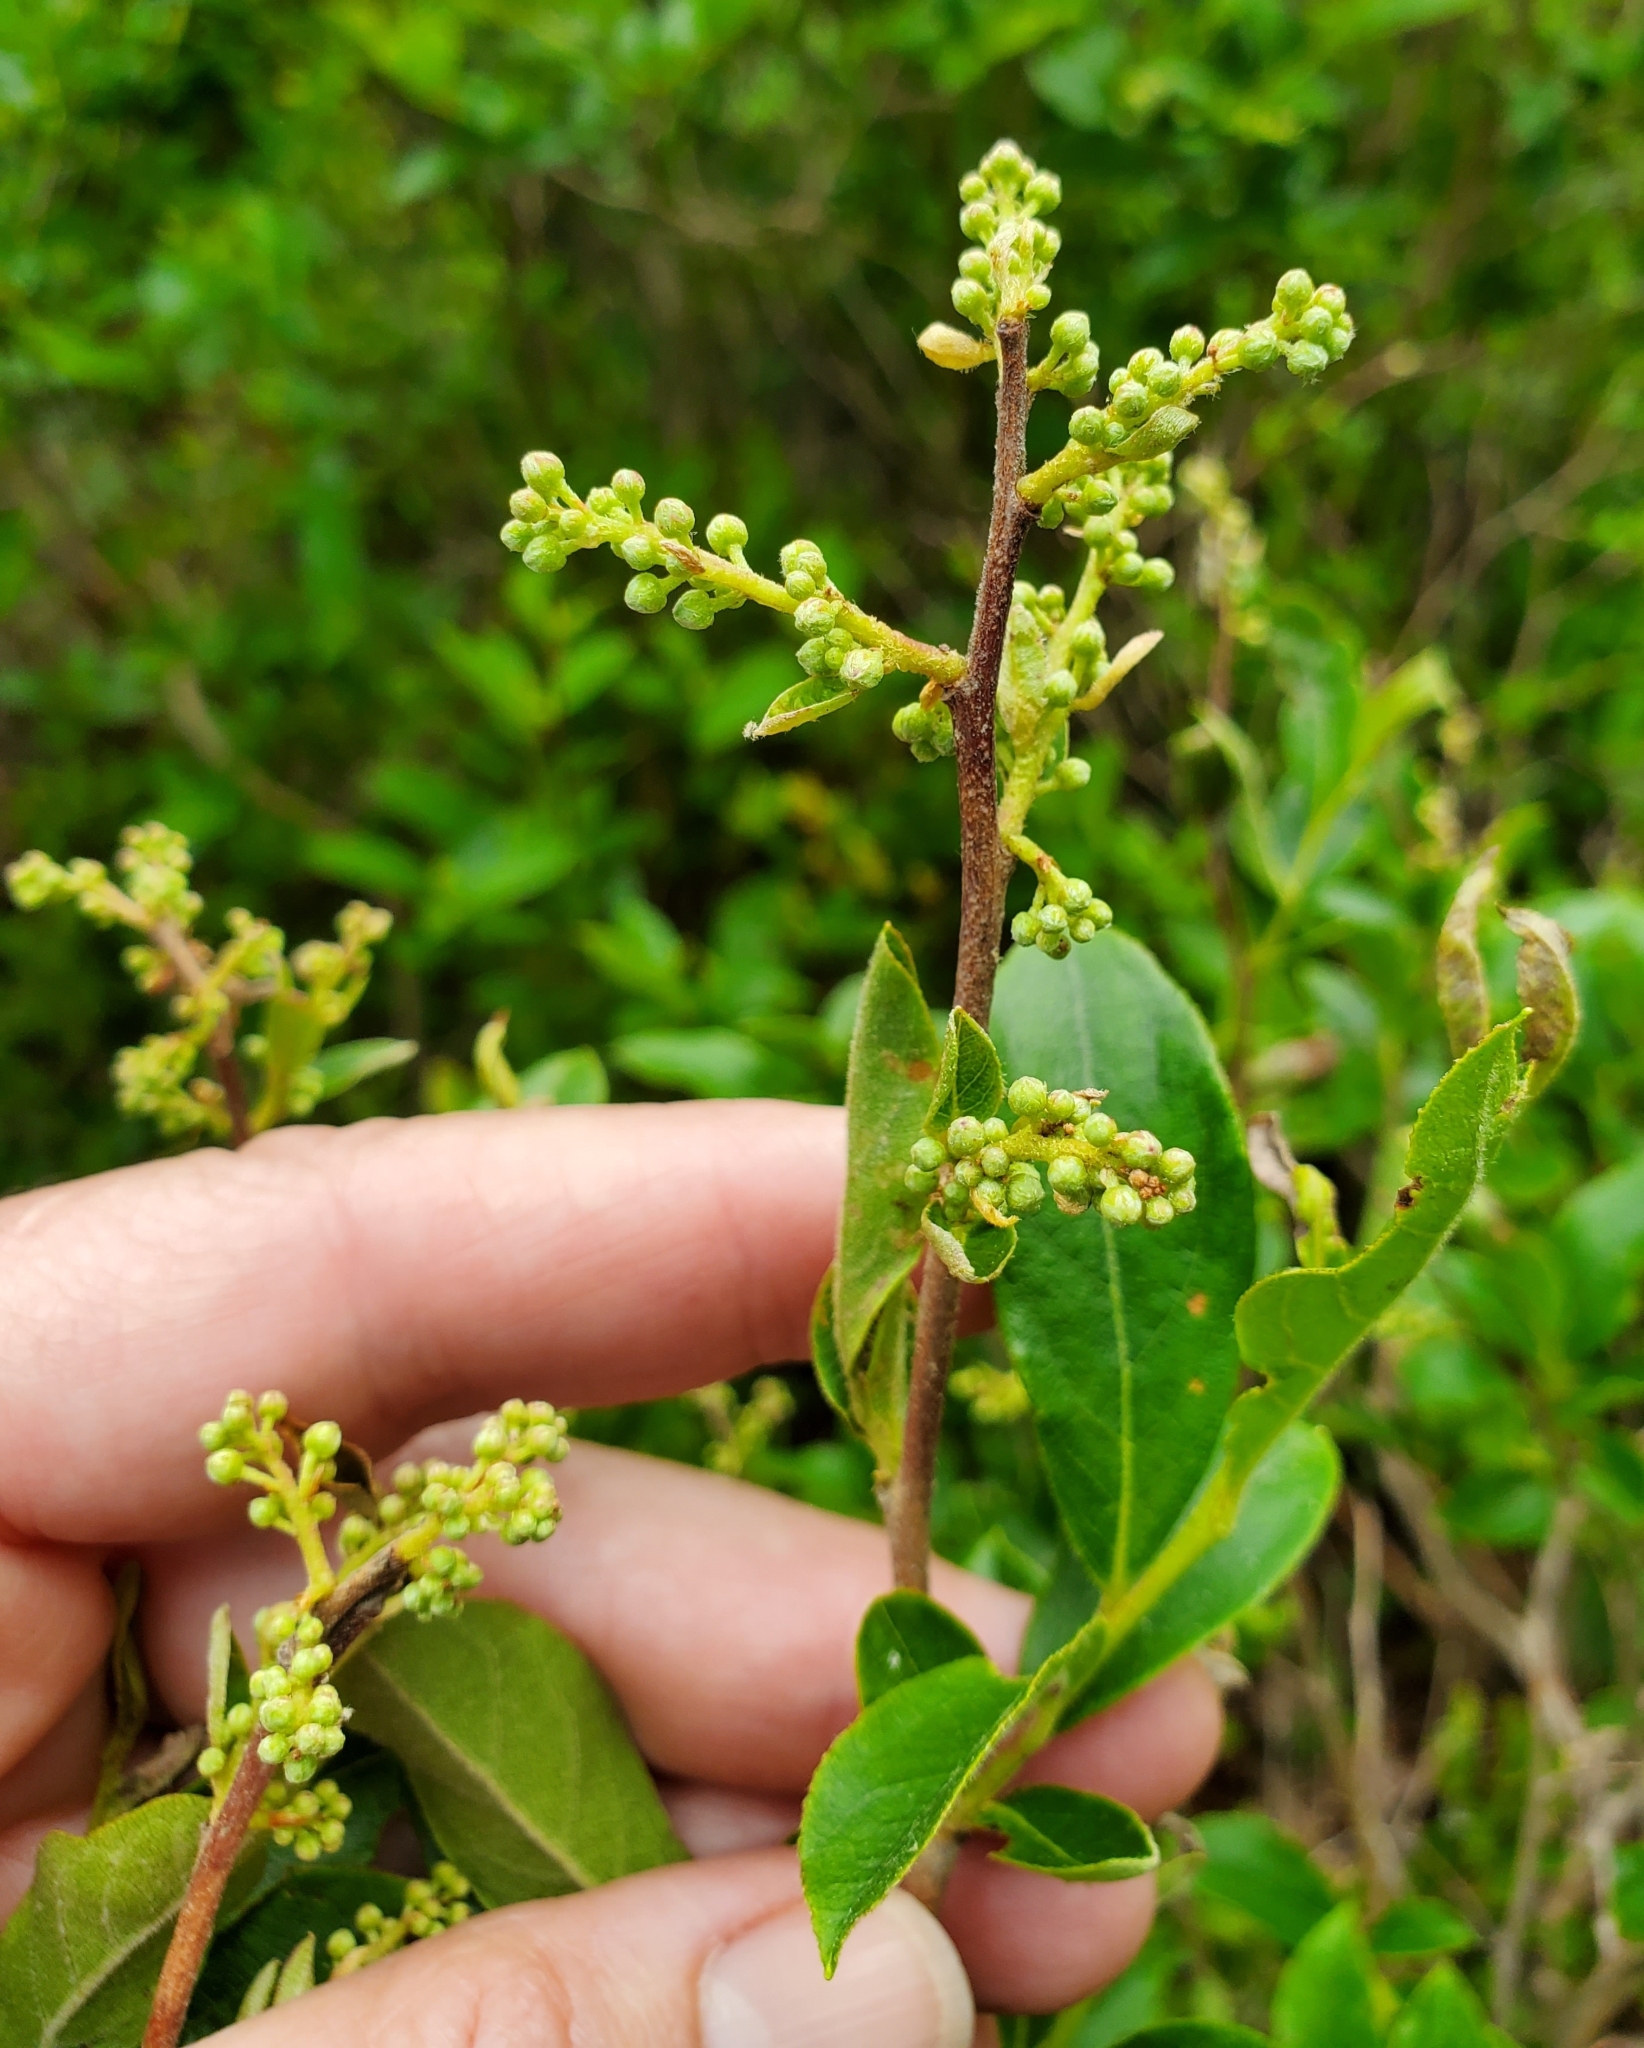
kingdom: Plantae
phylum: Tracheophyta
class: Magnoliopsida
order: Ericales
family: Ericaceae
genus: Lyonia
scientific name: Lyonia ligustrina
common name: Maleberry
